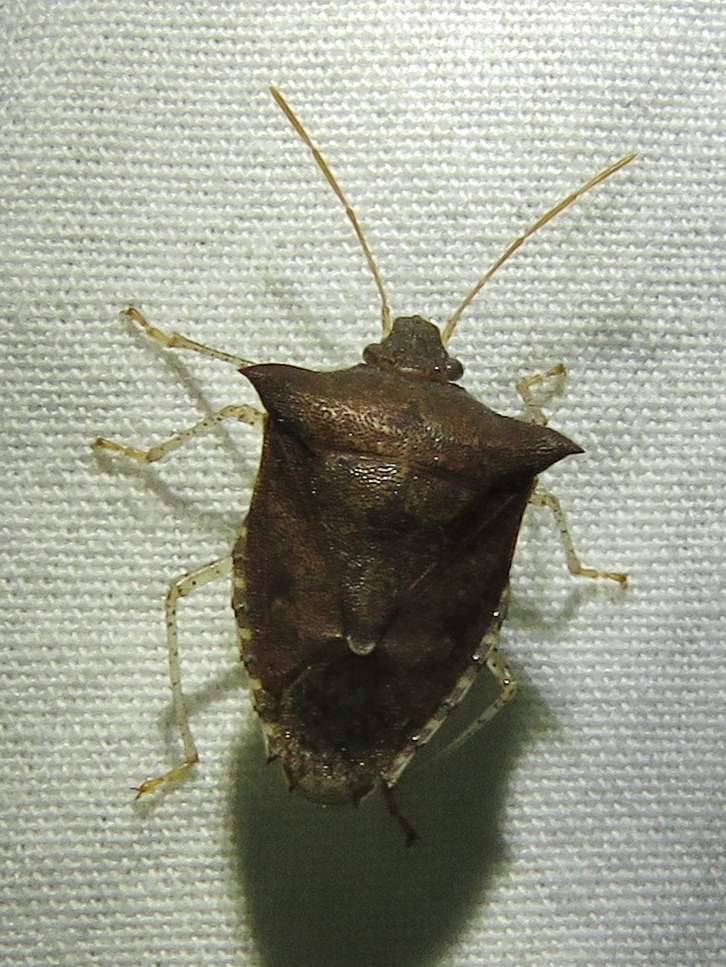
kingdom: Animalia
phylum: Arthropoda
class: Insecta
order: Hemiptera
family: Pentatomidae
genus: Euschistus
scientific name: Euschistus tristigmus
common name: Dusky stink bug
